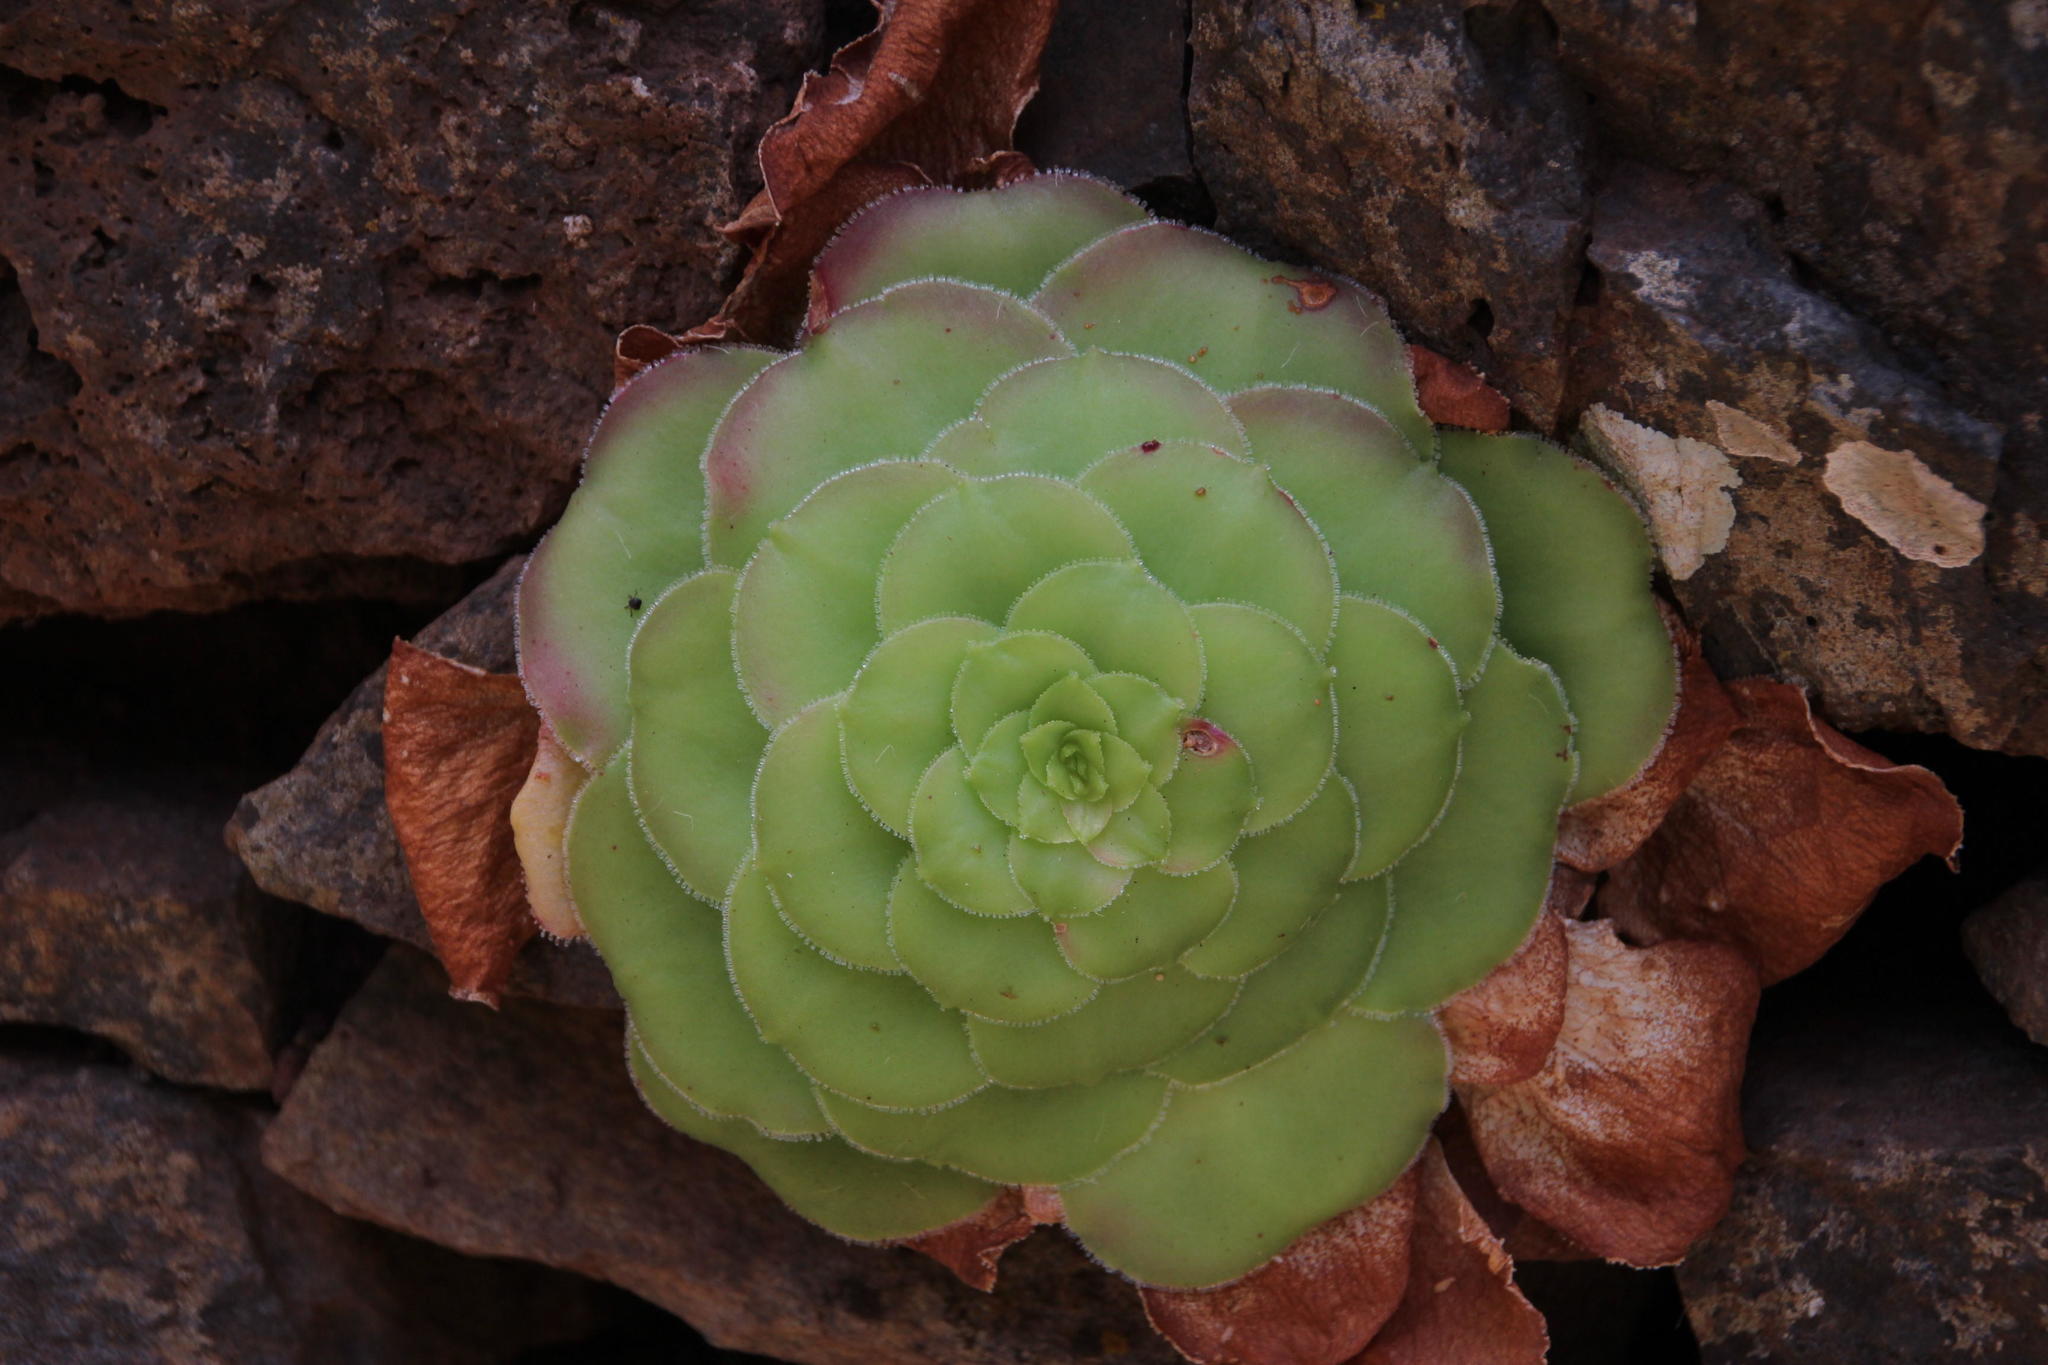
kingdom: Plantae
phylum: Tracheophyta
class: Magnoliopsida
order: Saxifragales
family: Crassulaceae
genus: Aeonium
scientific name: Aeonium glandulosum
